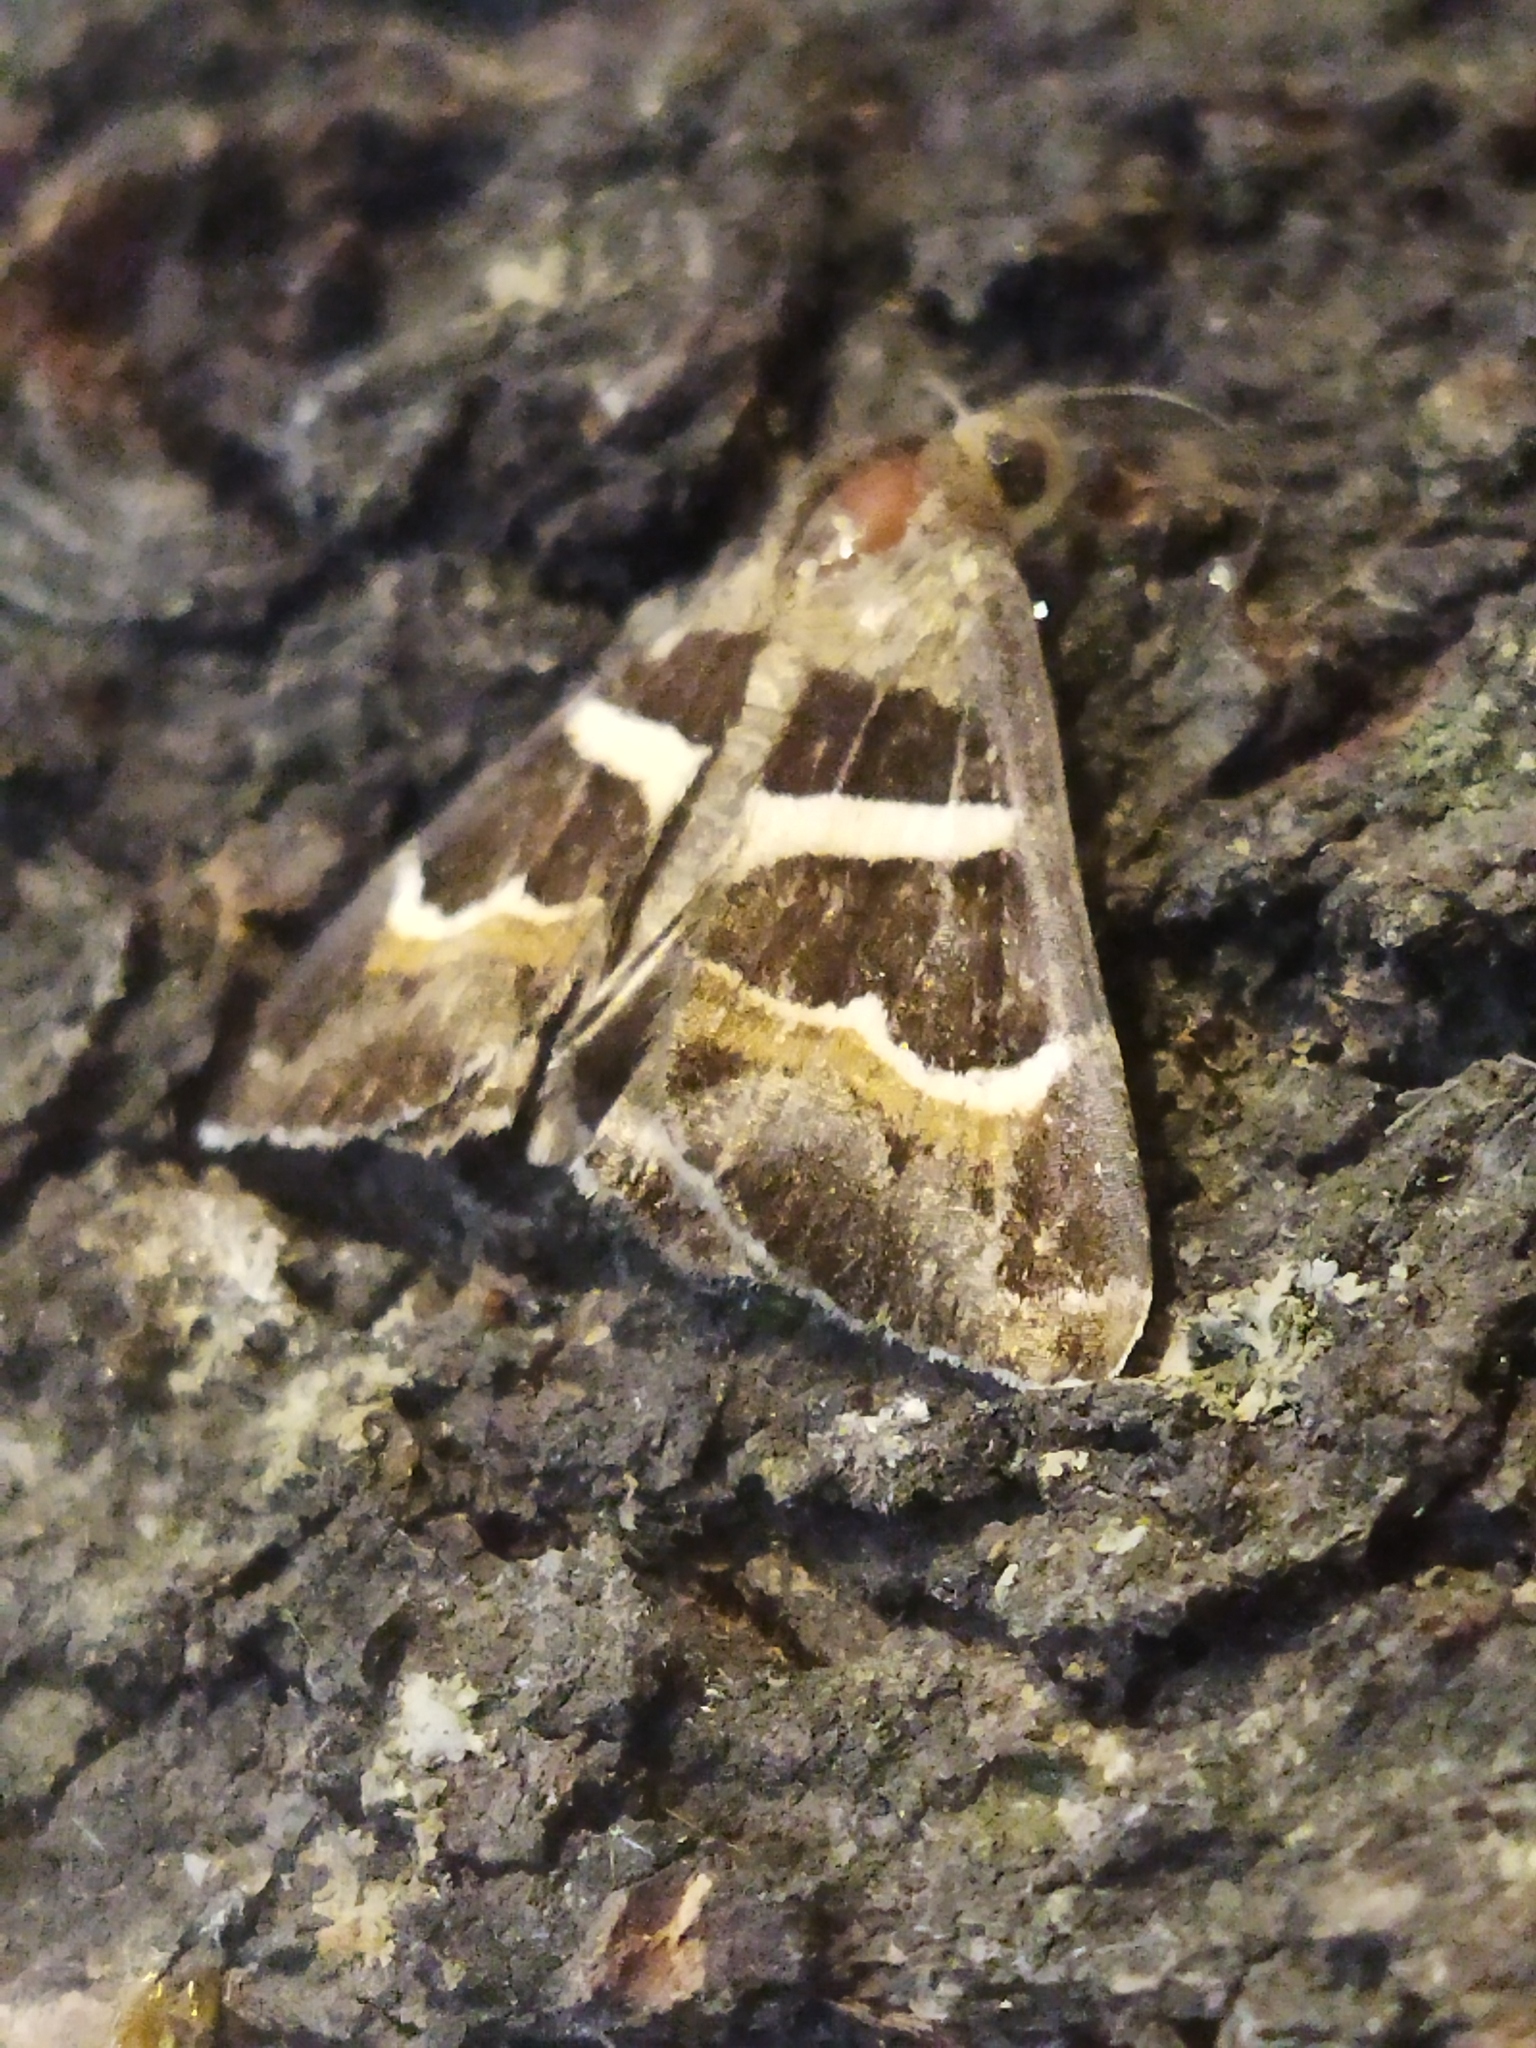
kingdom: Animalia
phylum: Arthropoda
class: Insecta
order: Lepidoptera
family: Erebidae
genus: Grammodes
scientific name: Grammodes stolida
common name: Geometrician
